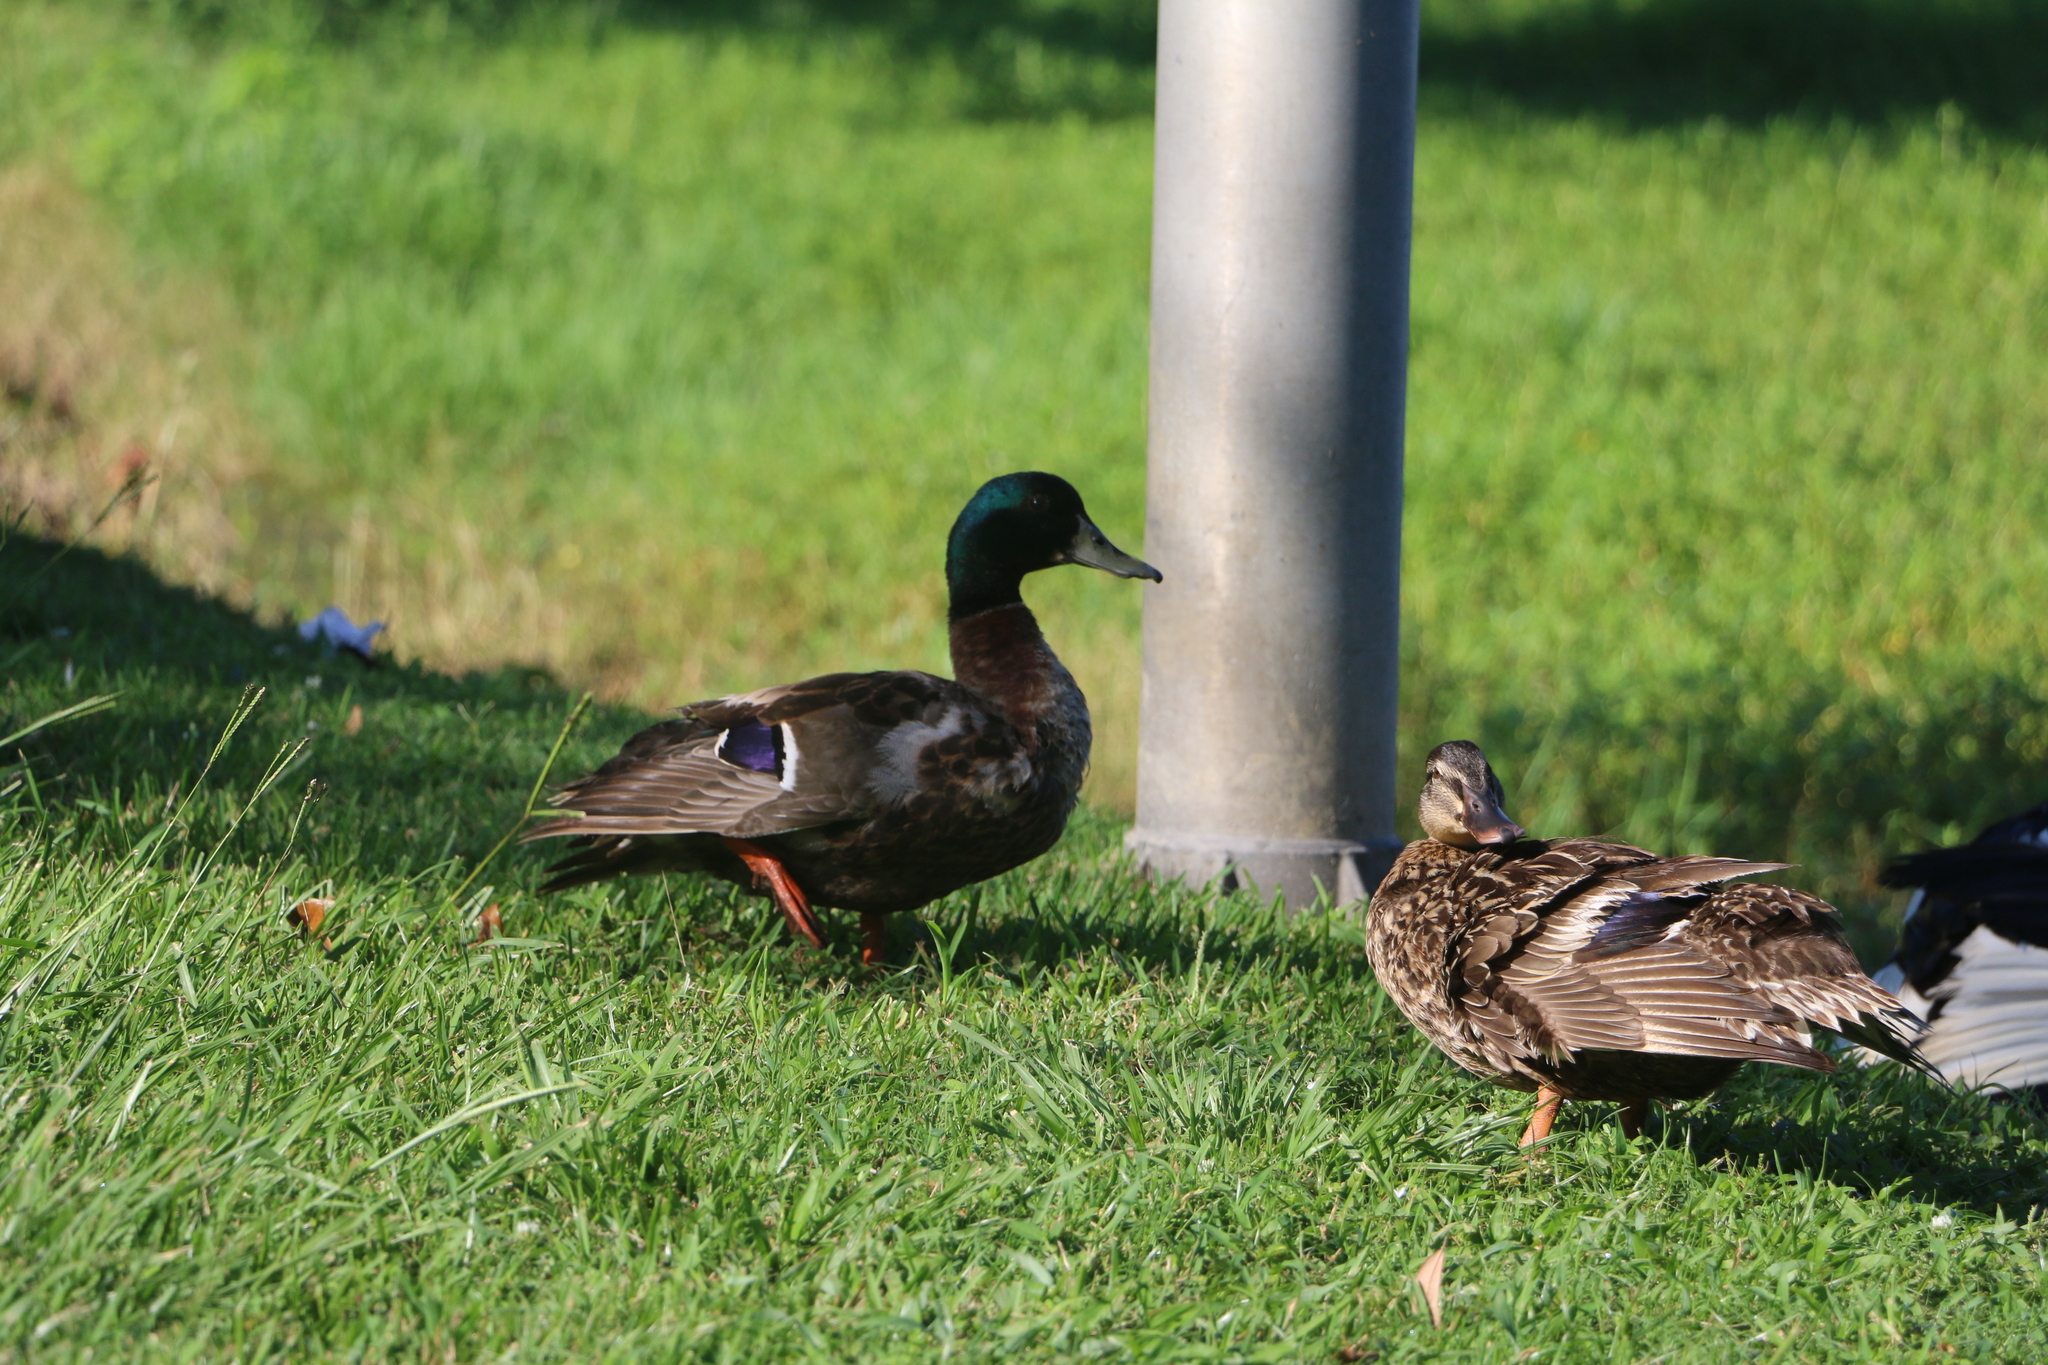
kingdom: Animalia
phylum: Chordata
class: Aves
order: Anseriformes
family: Anatidae
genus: Anas
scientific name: Anas platyrhynchos
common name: Mallard
